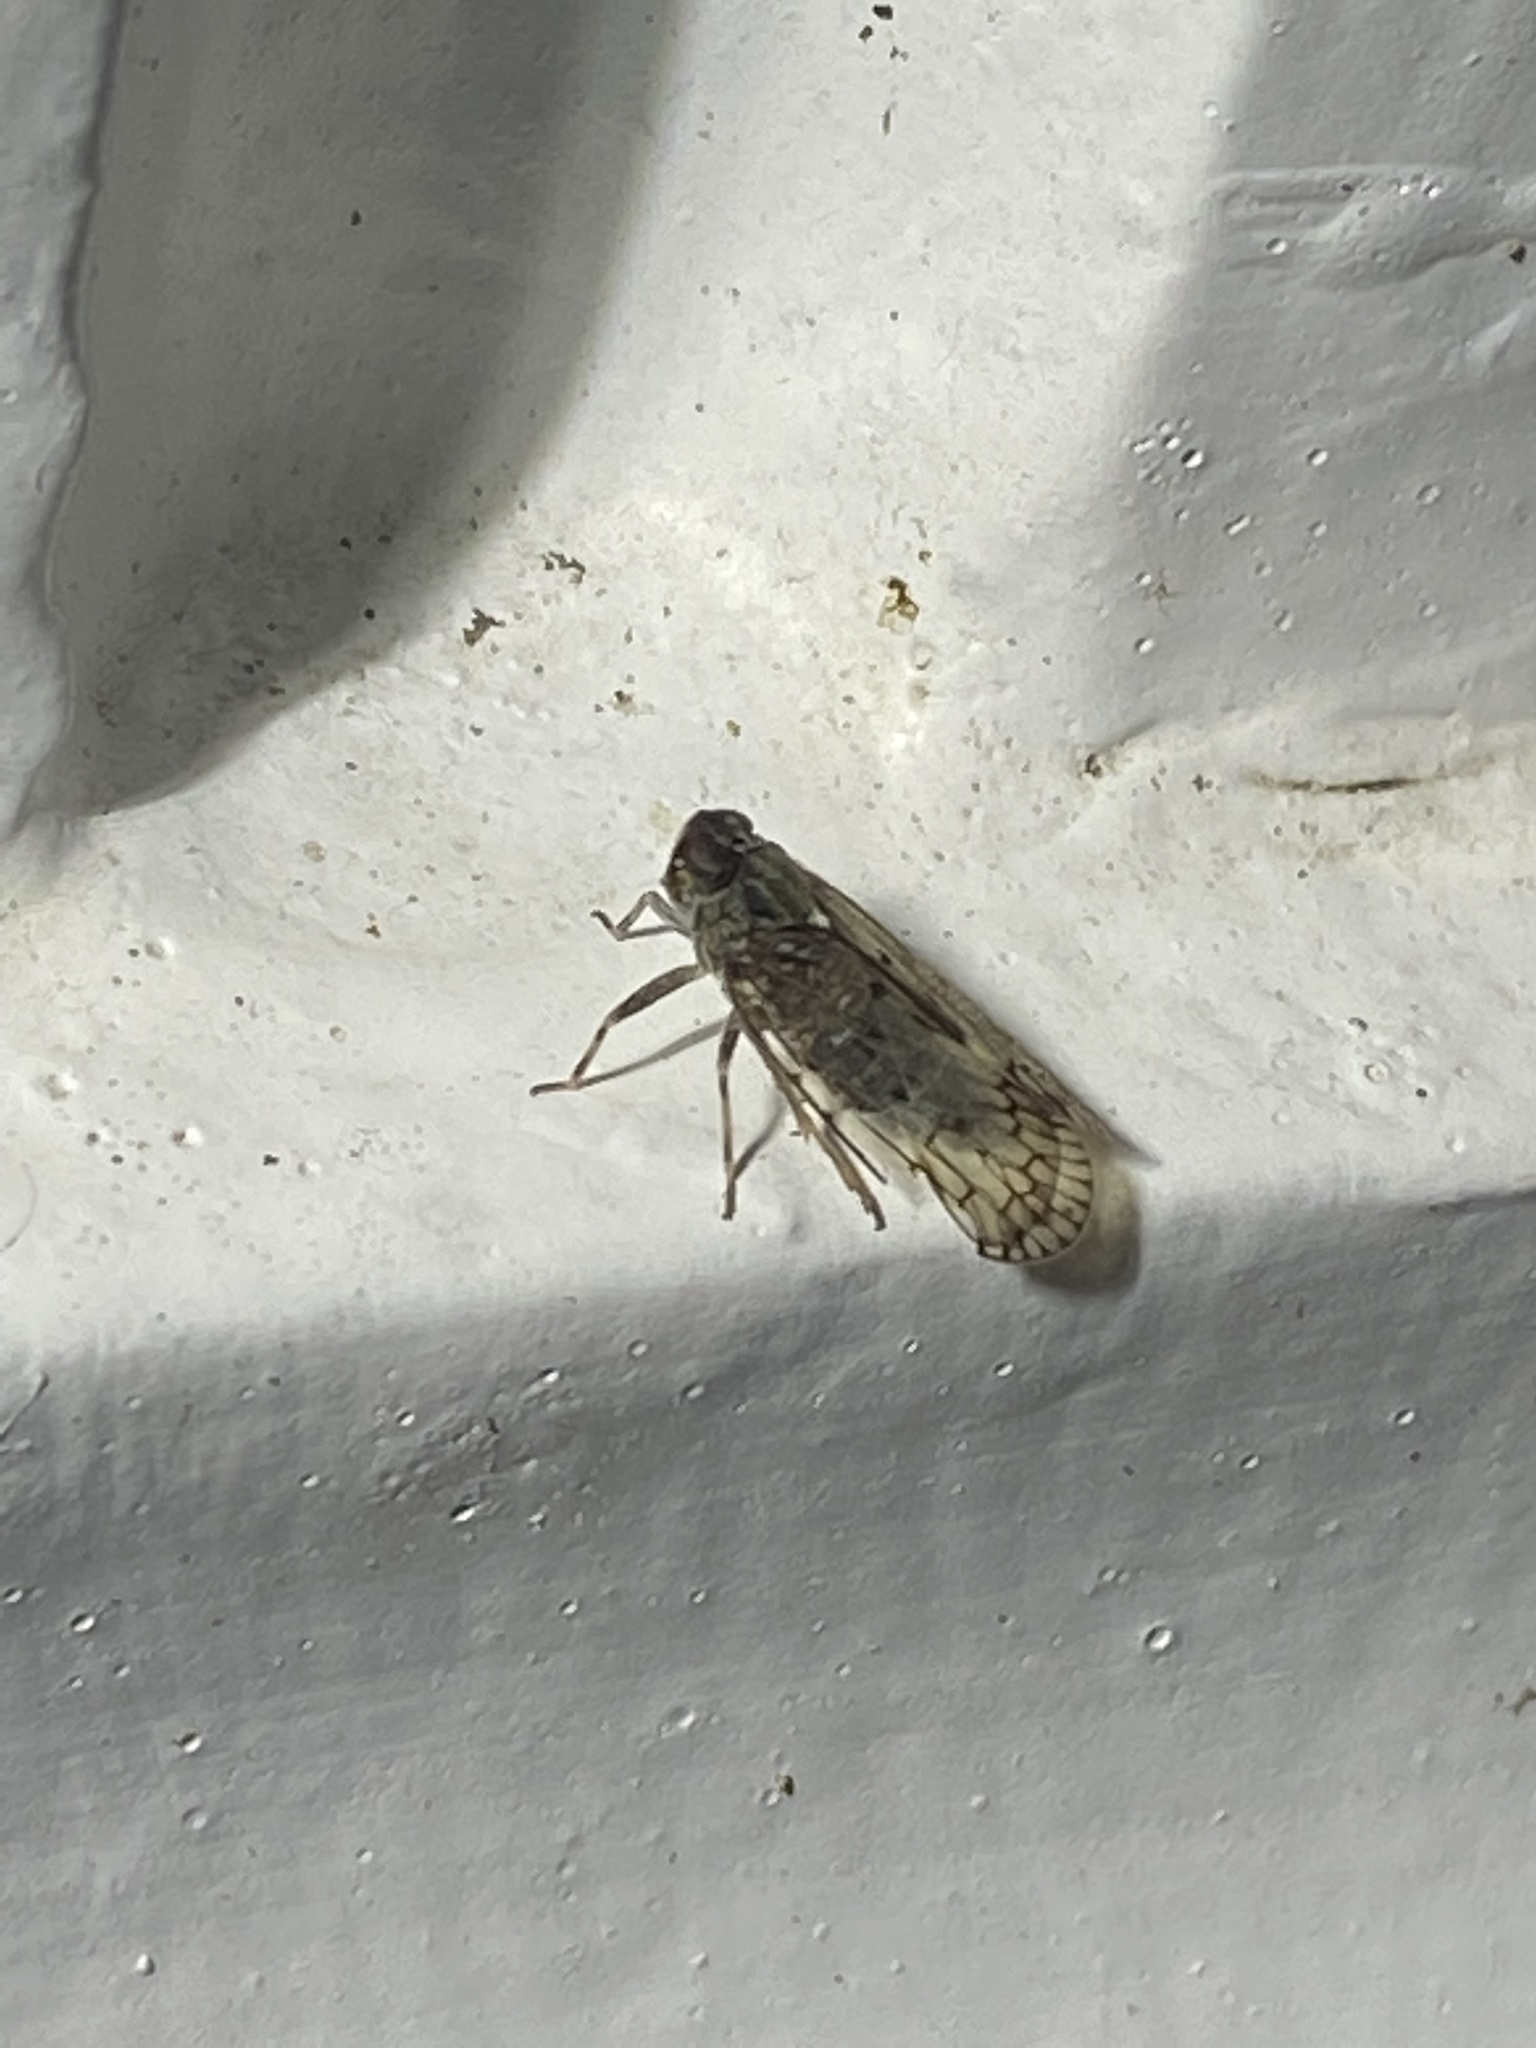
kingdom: Animalia
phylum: Arthropoda
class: Insecta
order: Hemiptera
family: Cixiidae
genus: Melanoliarus
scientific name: Melanoliarus placitus
